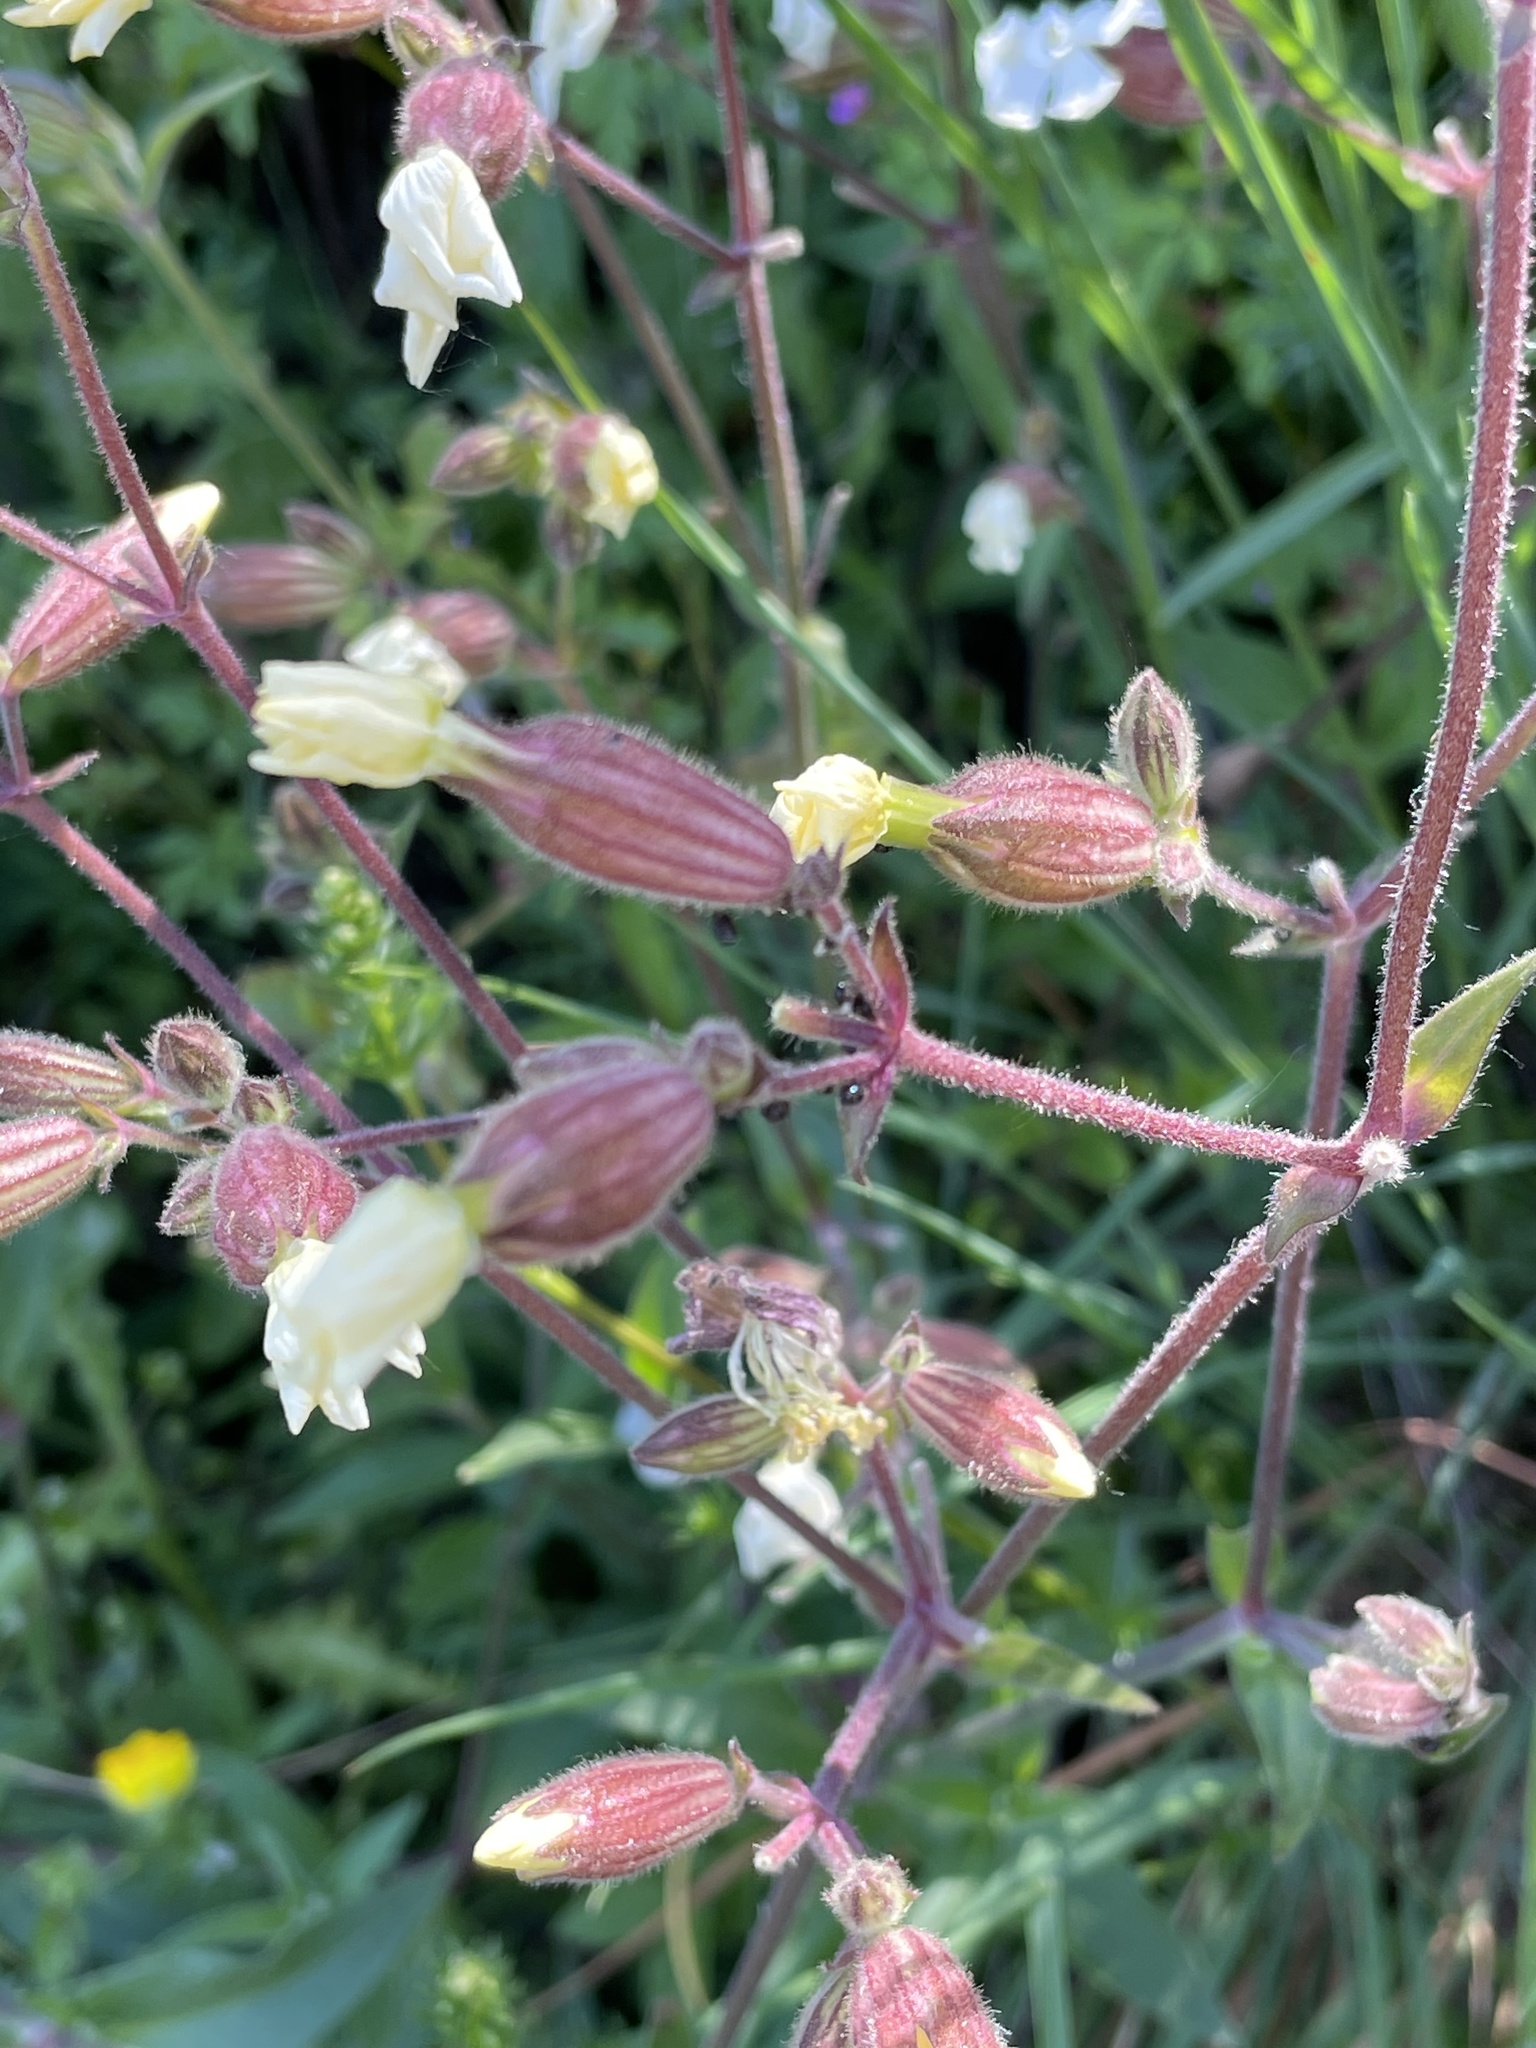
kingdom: Plantae
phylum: Tracheophyta
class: Magnoliopsida
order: Caryophyllales
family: Caryophyllaceae
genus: Silene
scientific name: Silene latifolia
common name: White campion
